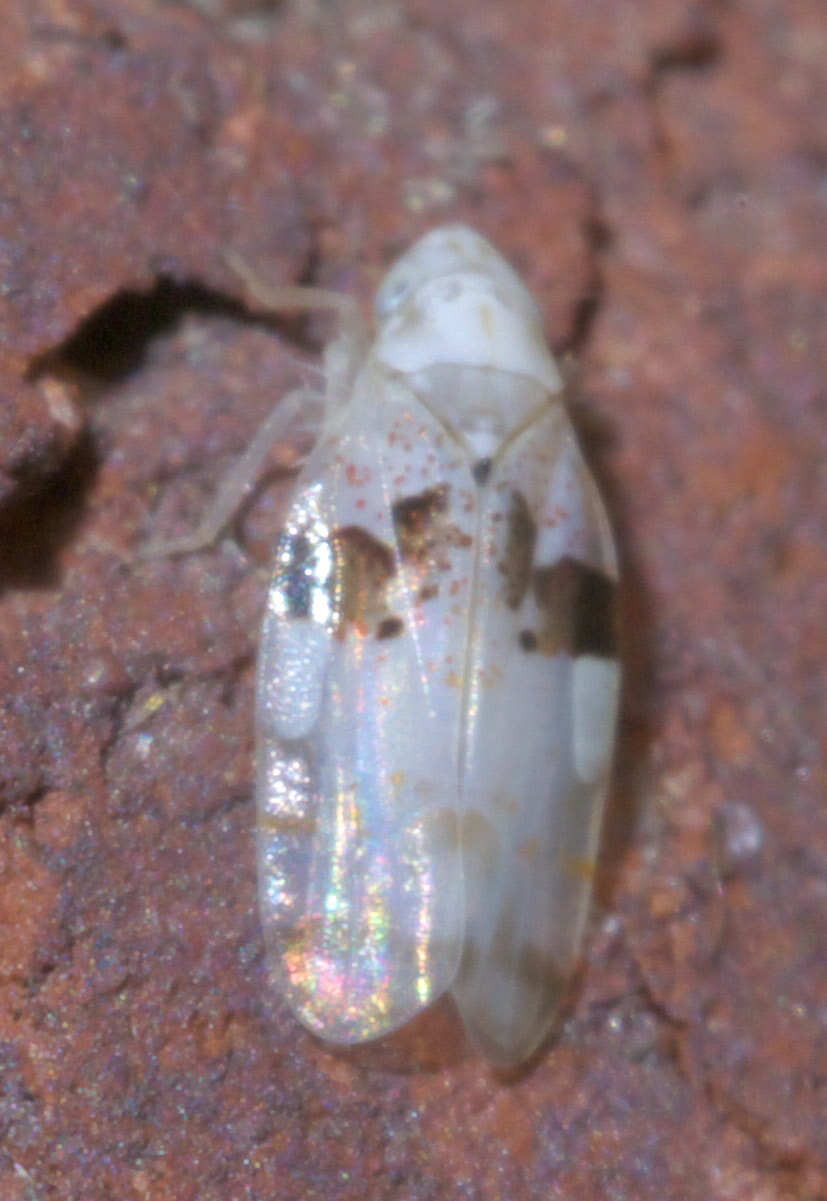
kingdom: Animalia
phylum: Arthropoda
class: Insecta
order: Hemiptera
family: Cicadellidae
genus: Hymetta
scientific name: Hymetta anthisma
